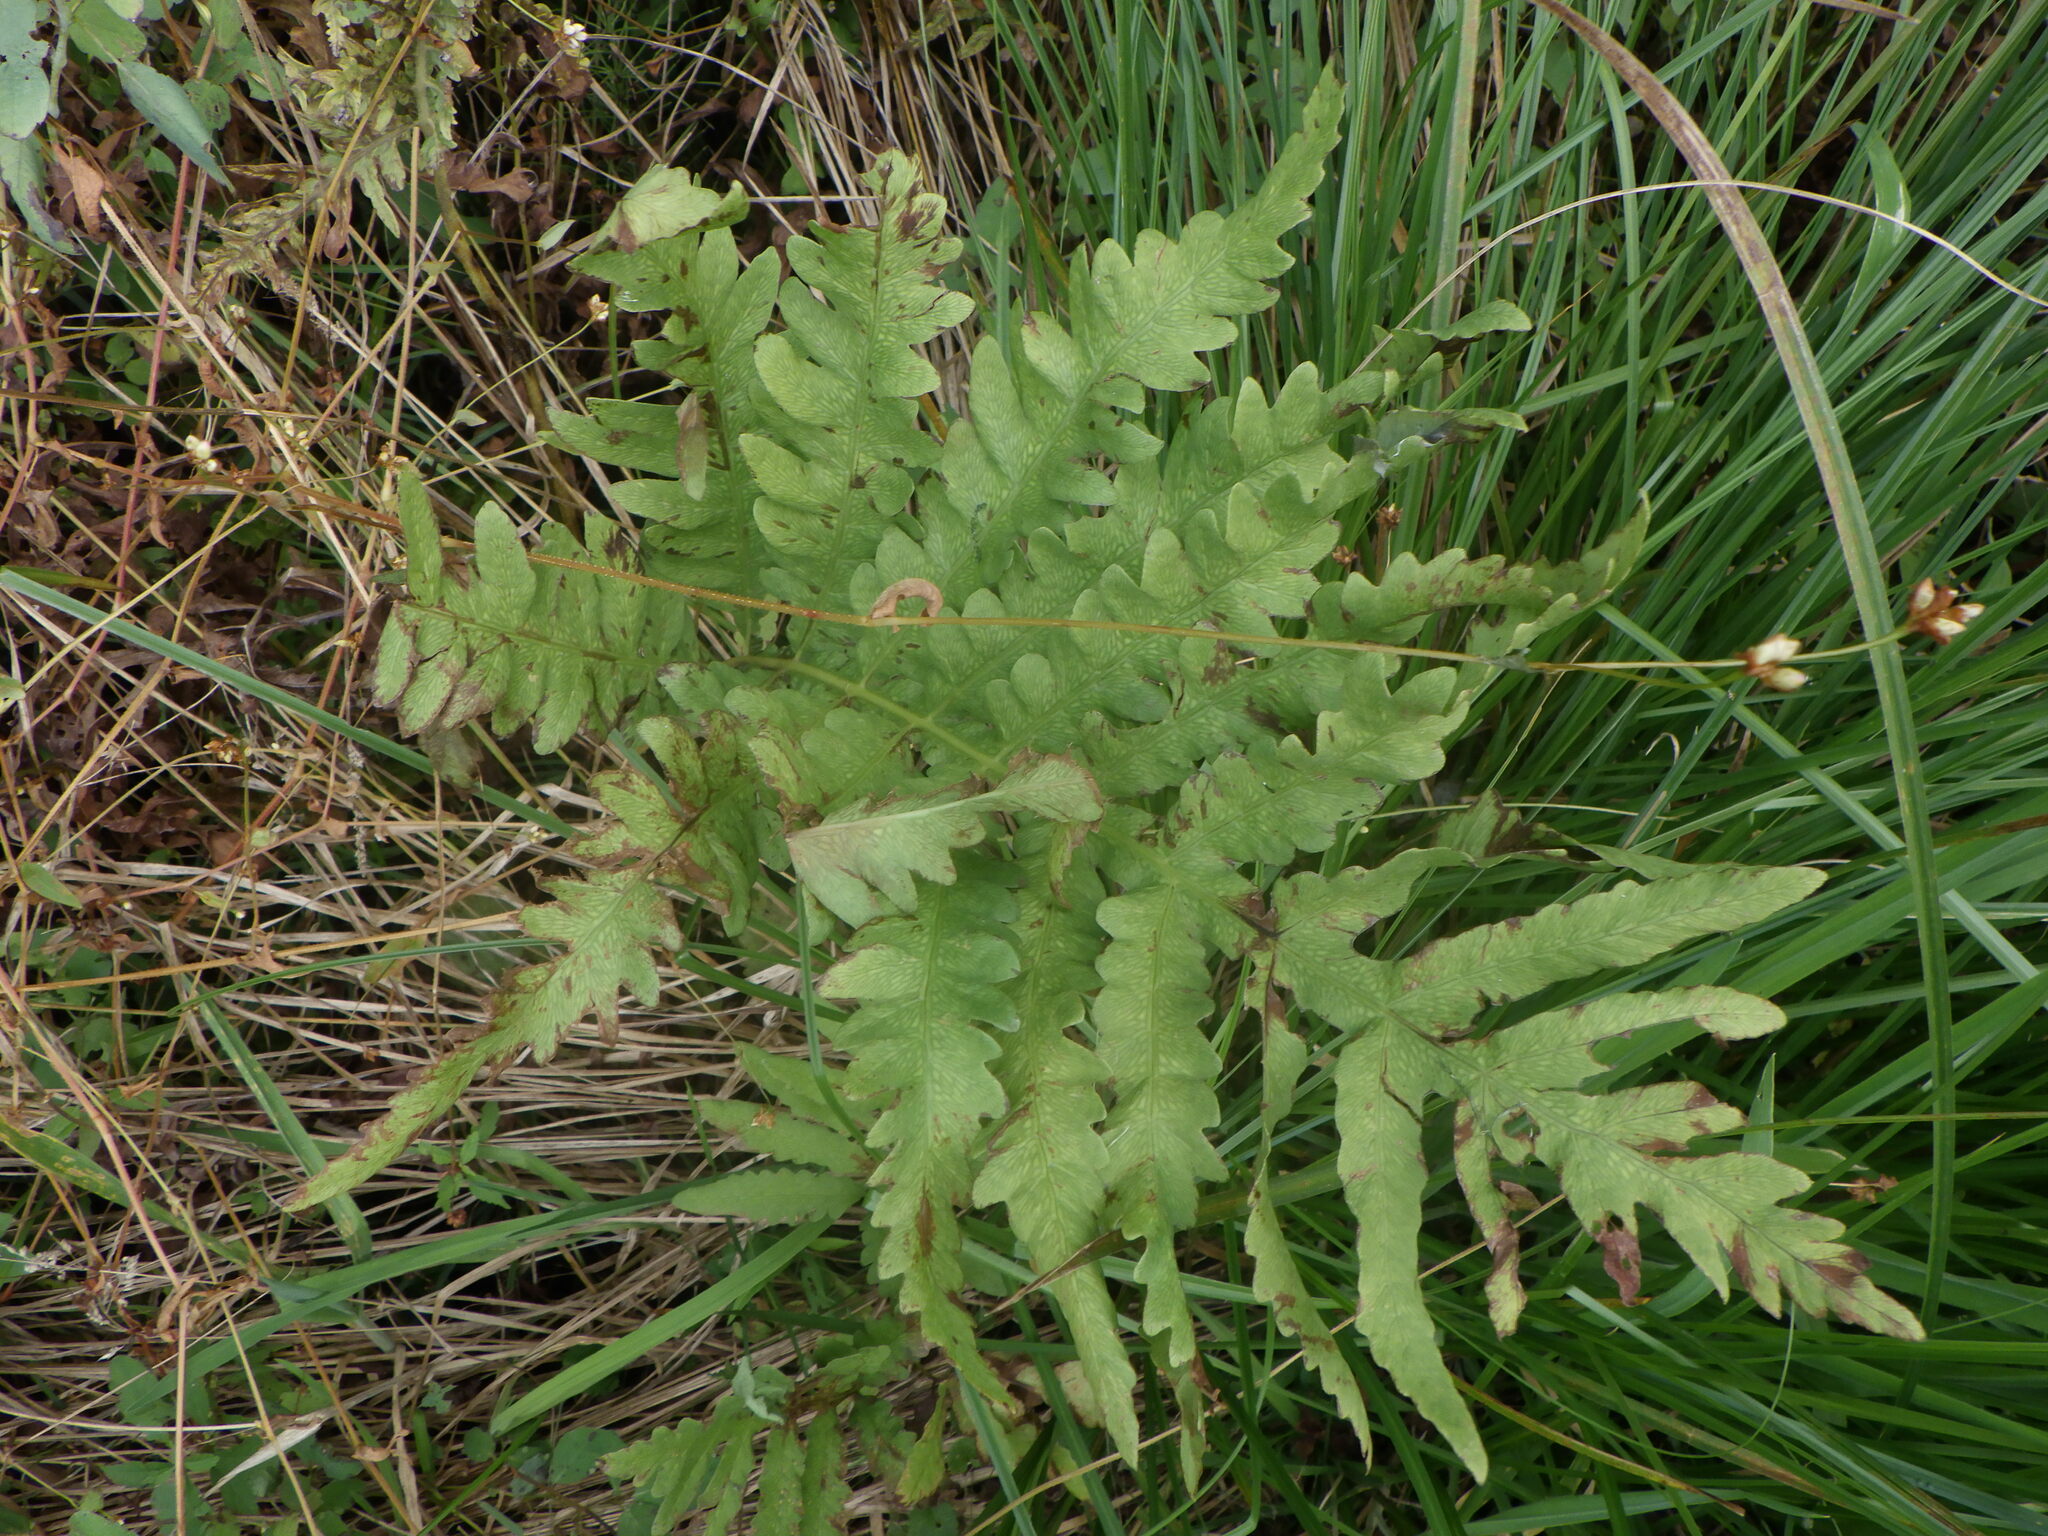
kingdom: Plantae
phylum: Tracheophyta
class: Polypodiopsida
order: Polypodiales
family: Onocleaceae
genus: Onoclea
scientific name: Onoclea sensibilis
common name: Sensitive fern
